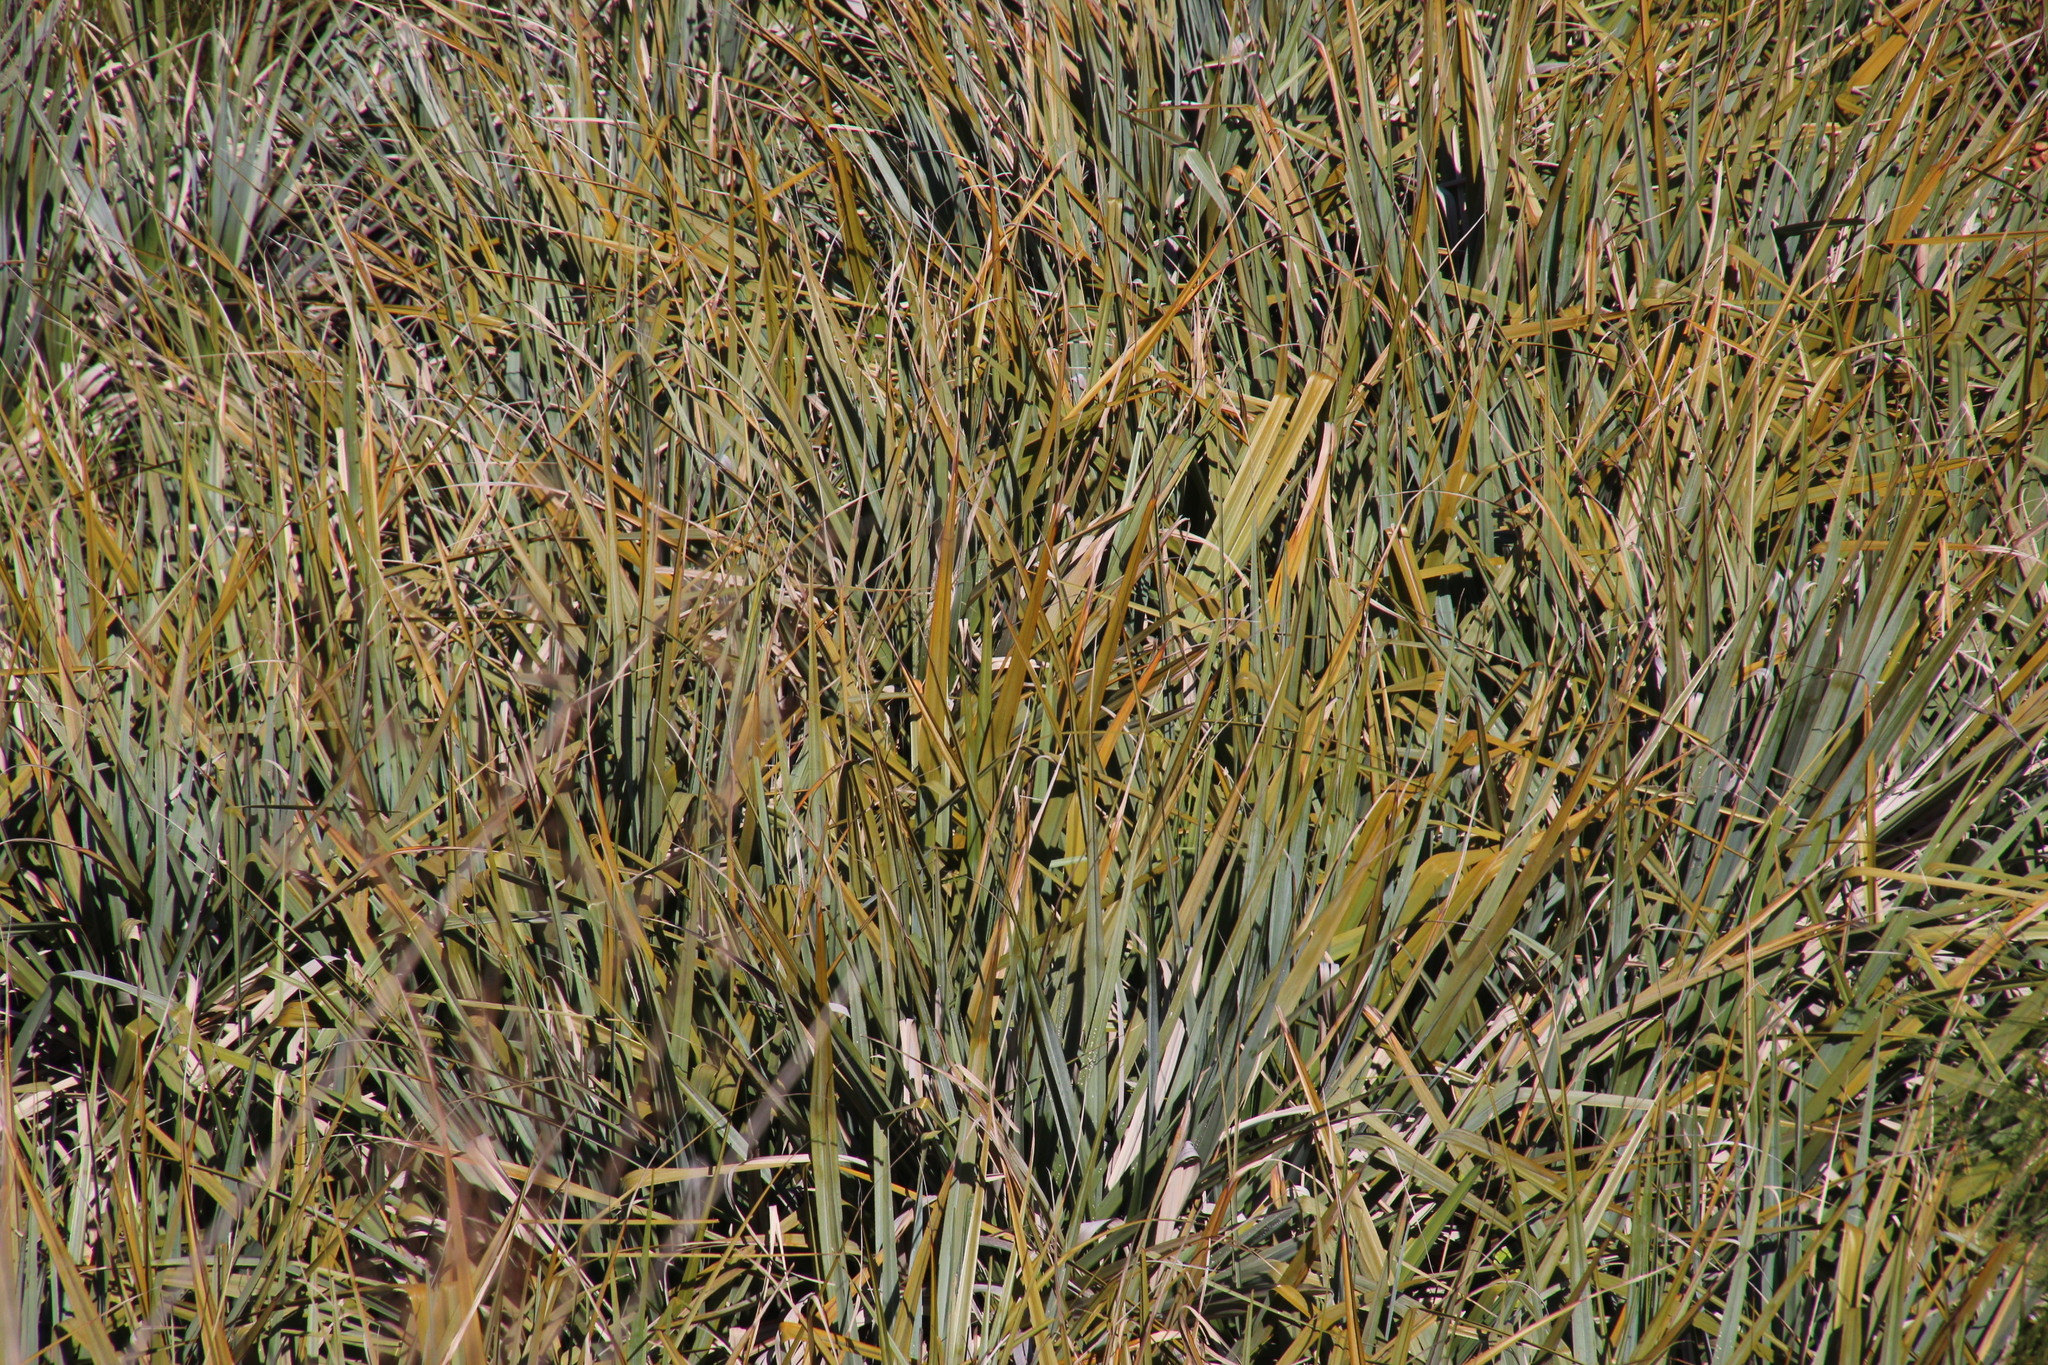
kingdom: Plantae
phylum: Tracheophyta
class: Liliopsida
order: Poales
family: Thurniaceae
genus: Prionium
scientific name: Prionium serratum
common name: Palmiet
